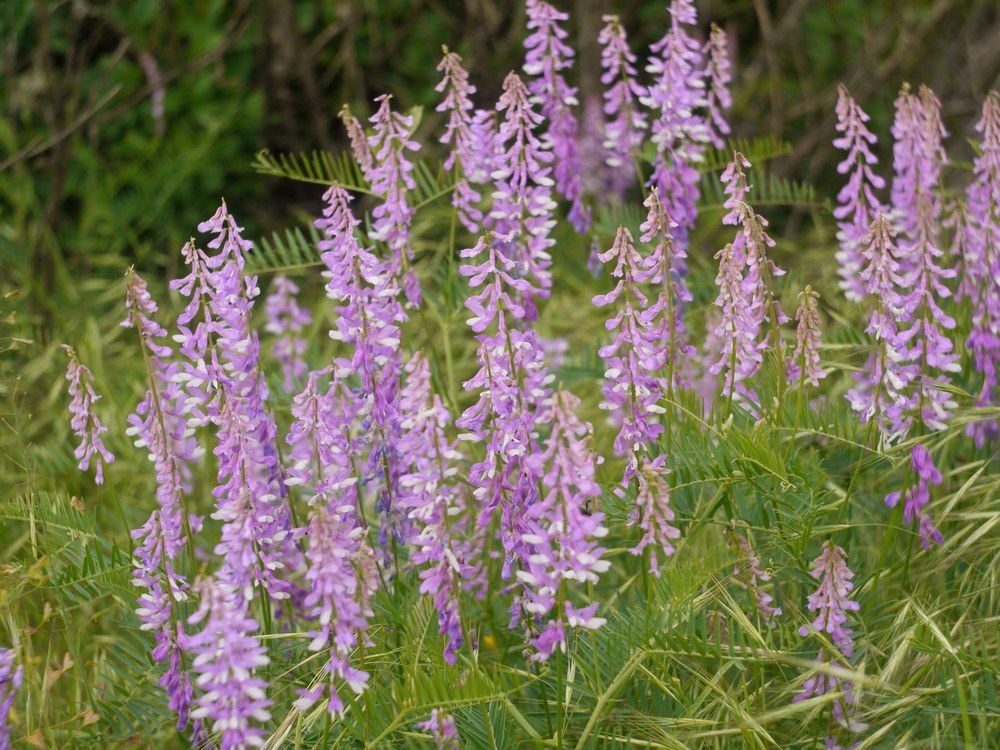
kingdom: Plantae
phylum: Tracheophyta
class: Magnoliopsida
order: Fabales
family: Fabaceae
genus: Vicia
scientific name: Vicia tenuifolia
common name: Fine-leaved vetch
